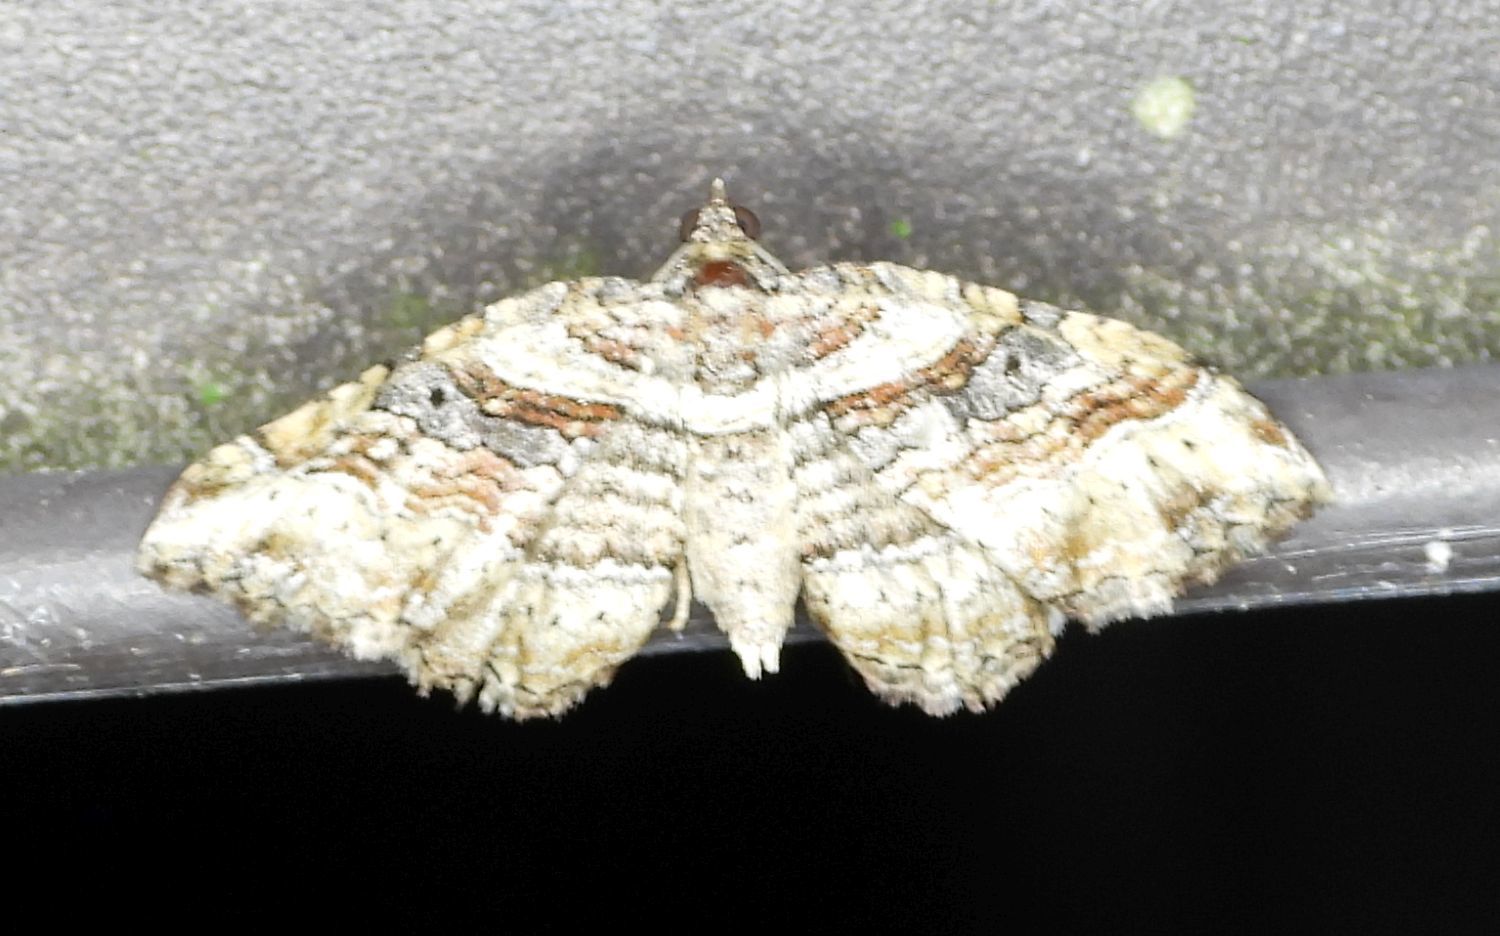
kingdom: Animalia
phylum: Arthropoda
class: Insecta
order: Lepidoptera
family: Geometridae
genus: Costaconvexa
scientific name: Costaconvexa centrostrigaria
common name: Bent-line carpet
